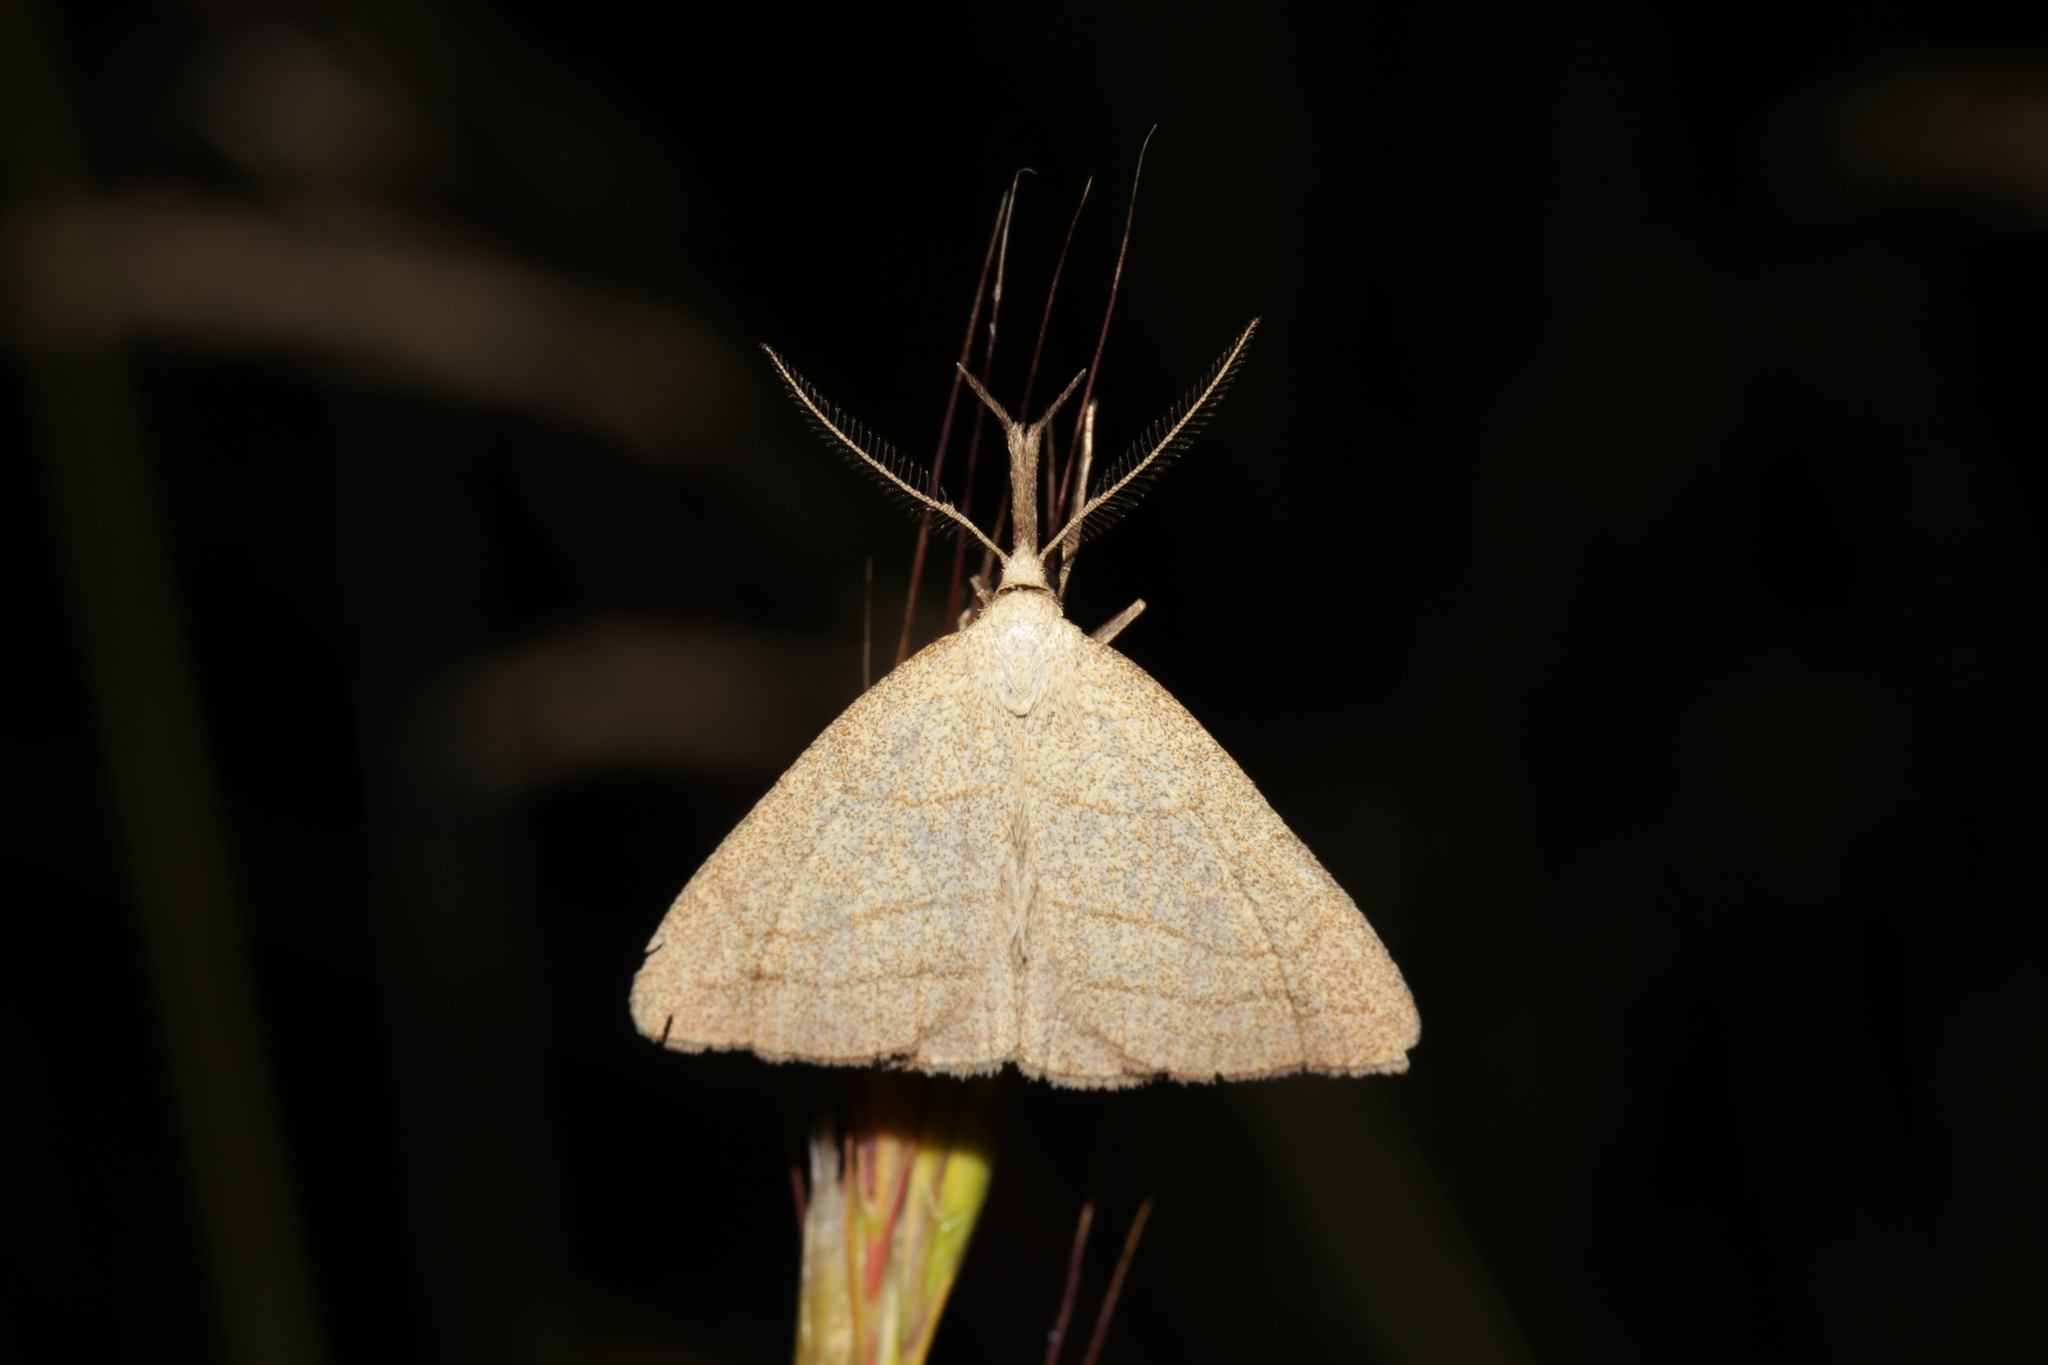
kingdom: Animalia
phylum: Arthropoda
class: Insecta
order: Lepidoptera
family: Erebidae
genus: Polypogon
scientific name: Polypogon tentacularia
